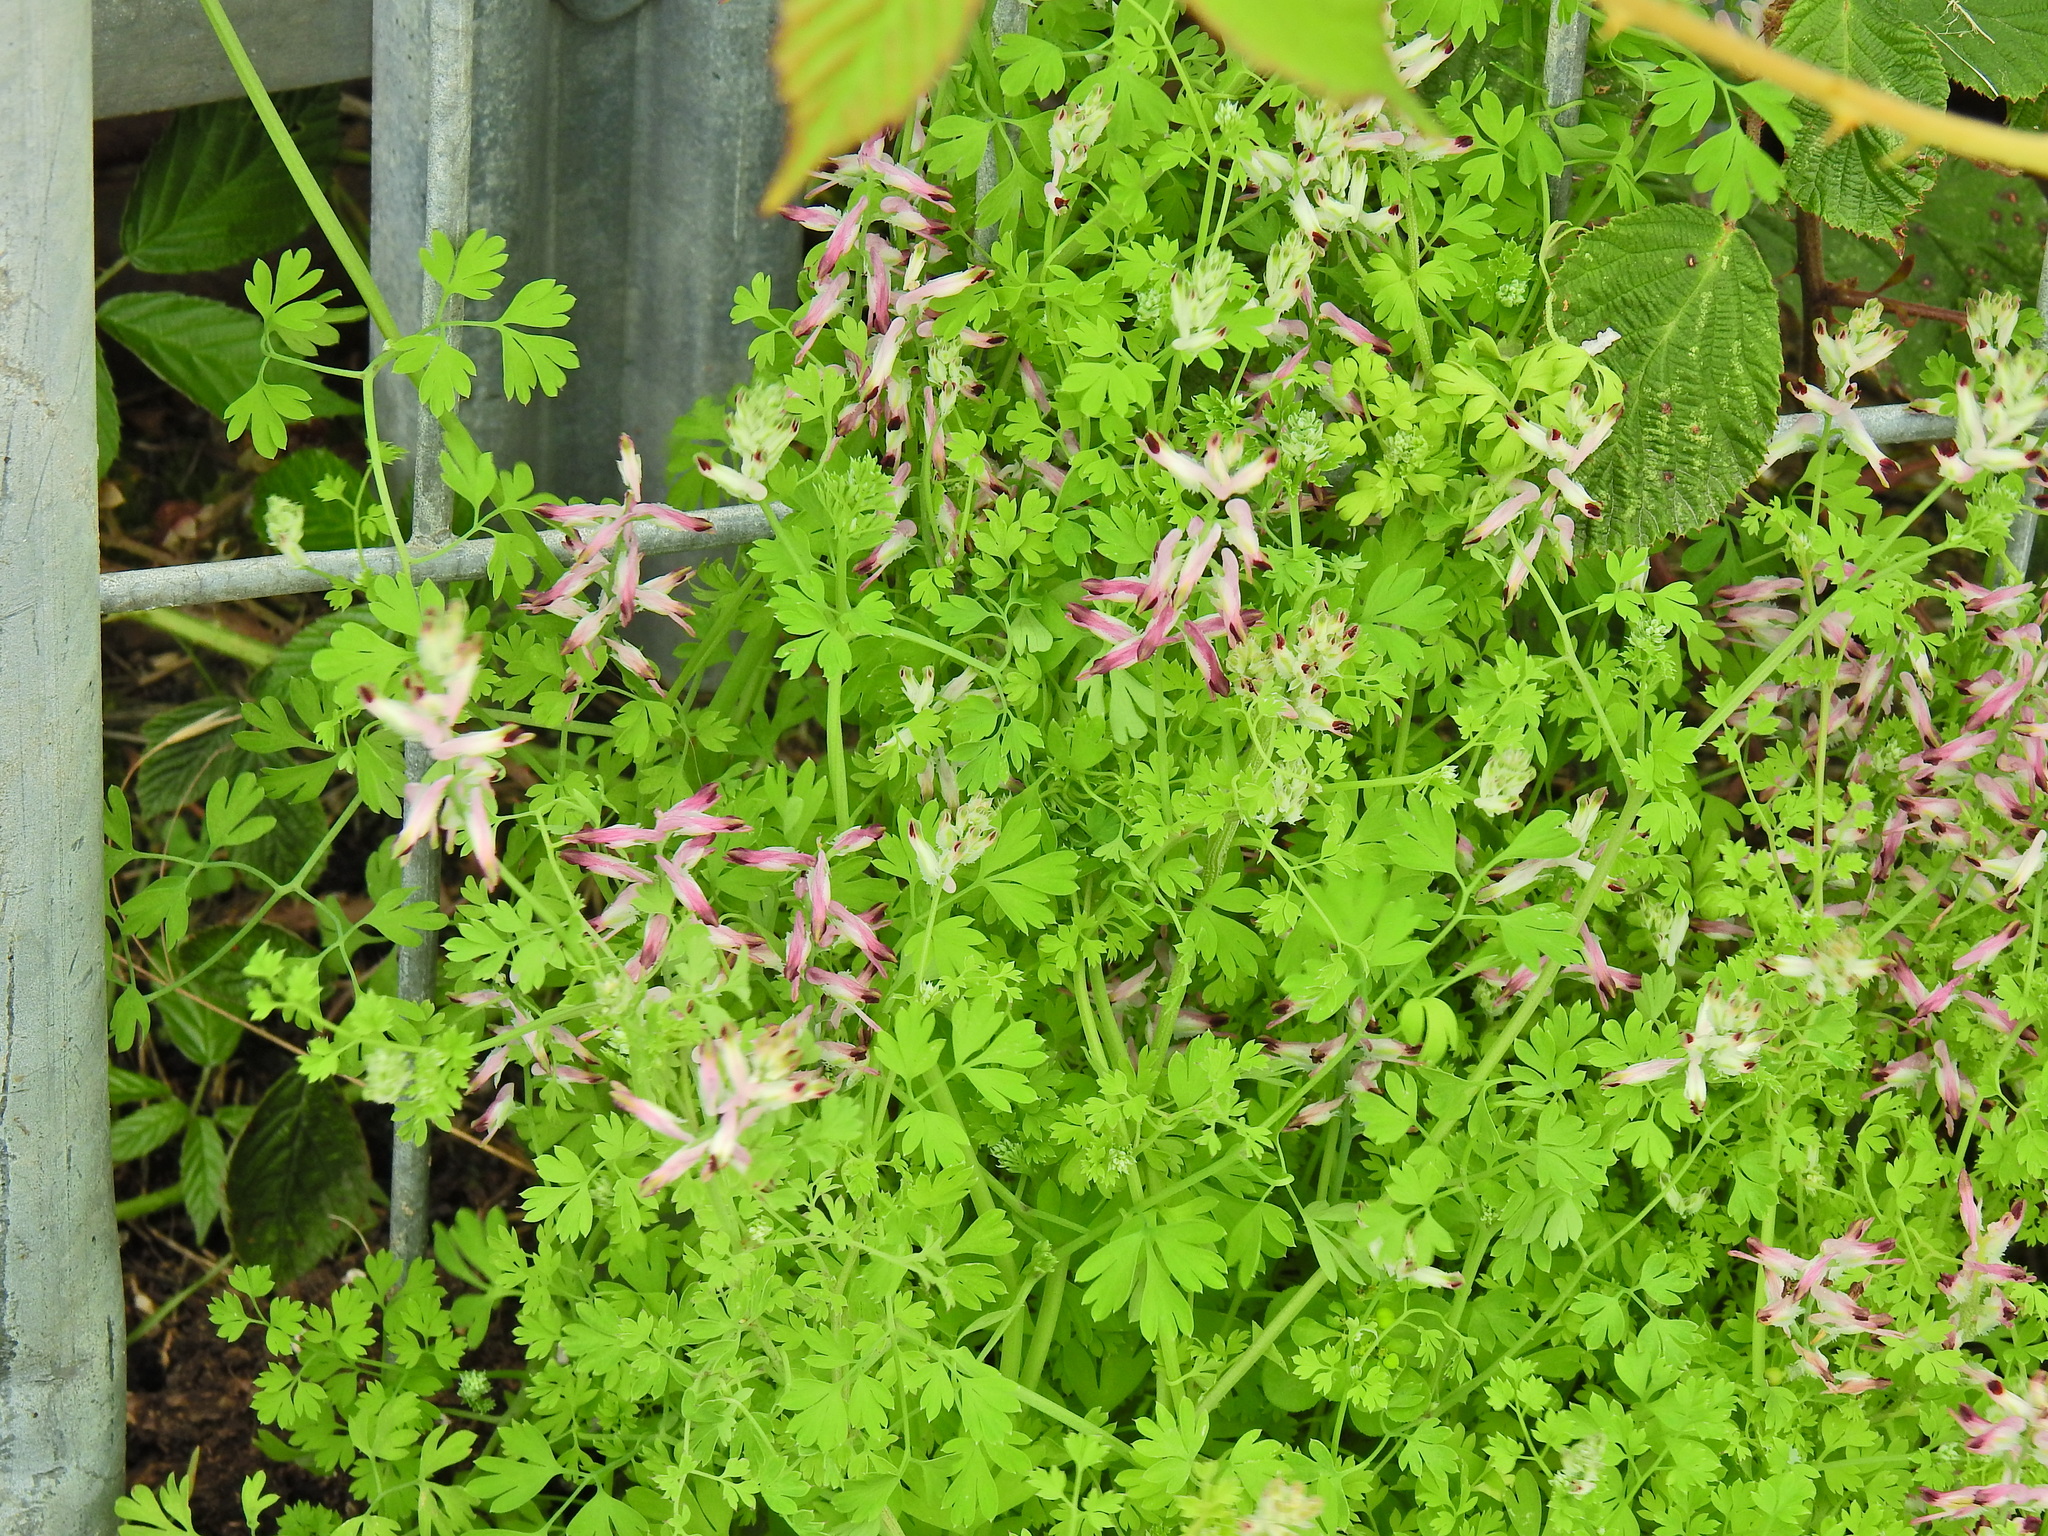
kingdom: Plantae
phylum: Tracheophyta
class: Magnoliopsida
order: Ranunculales
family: Papaveraceae
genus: Fumaria
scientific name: Fumaria muralis
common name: Common ramping-fumitory
